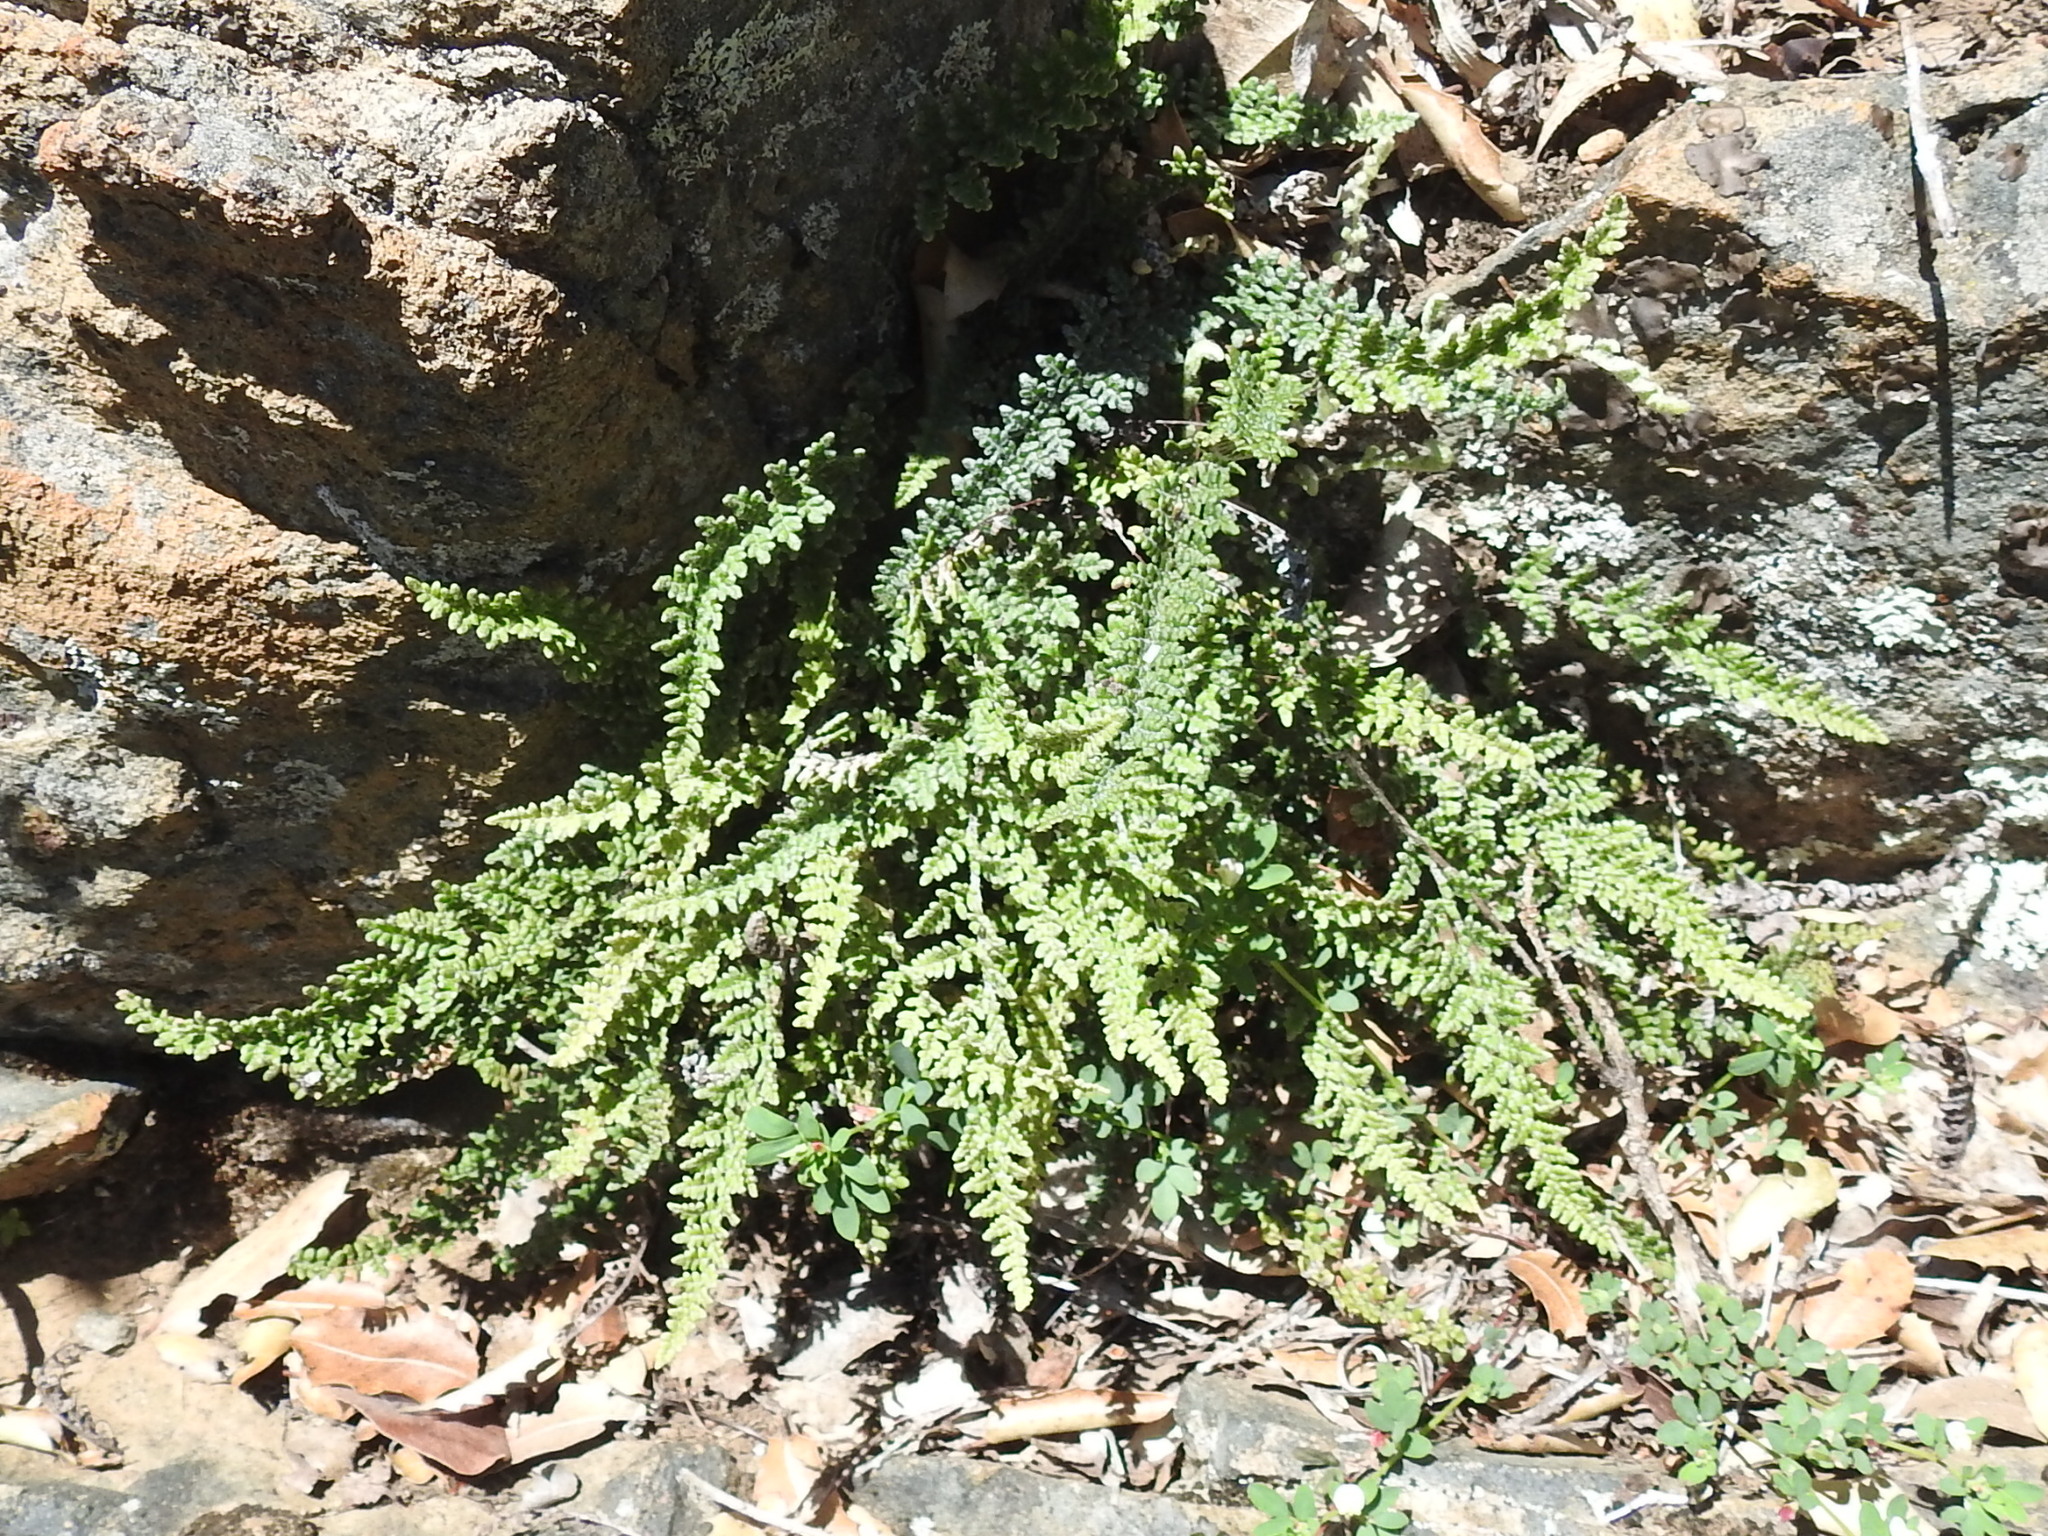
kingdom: Plantae
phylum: Tracheophyta
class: Polypodiopsida
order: Polypodiales
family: Pteridaceae
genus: Myriopteris
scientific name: Myriopteris gracillima
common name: Lace fern
